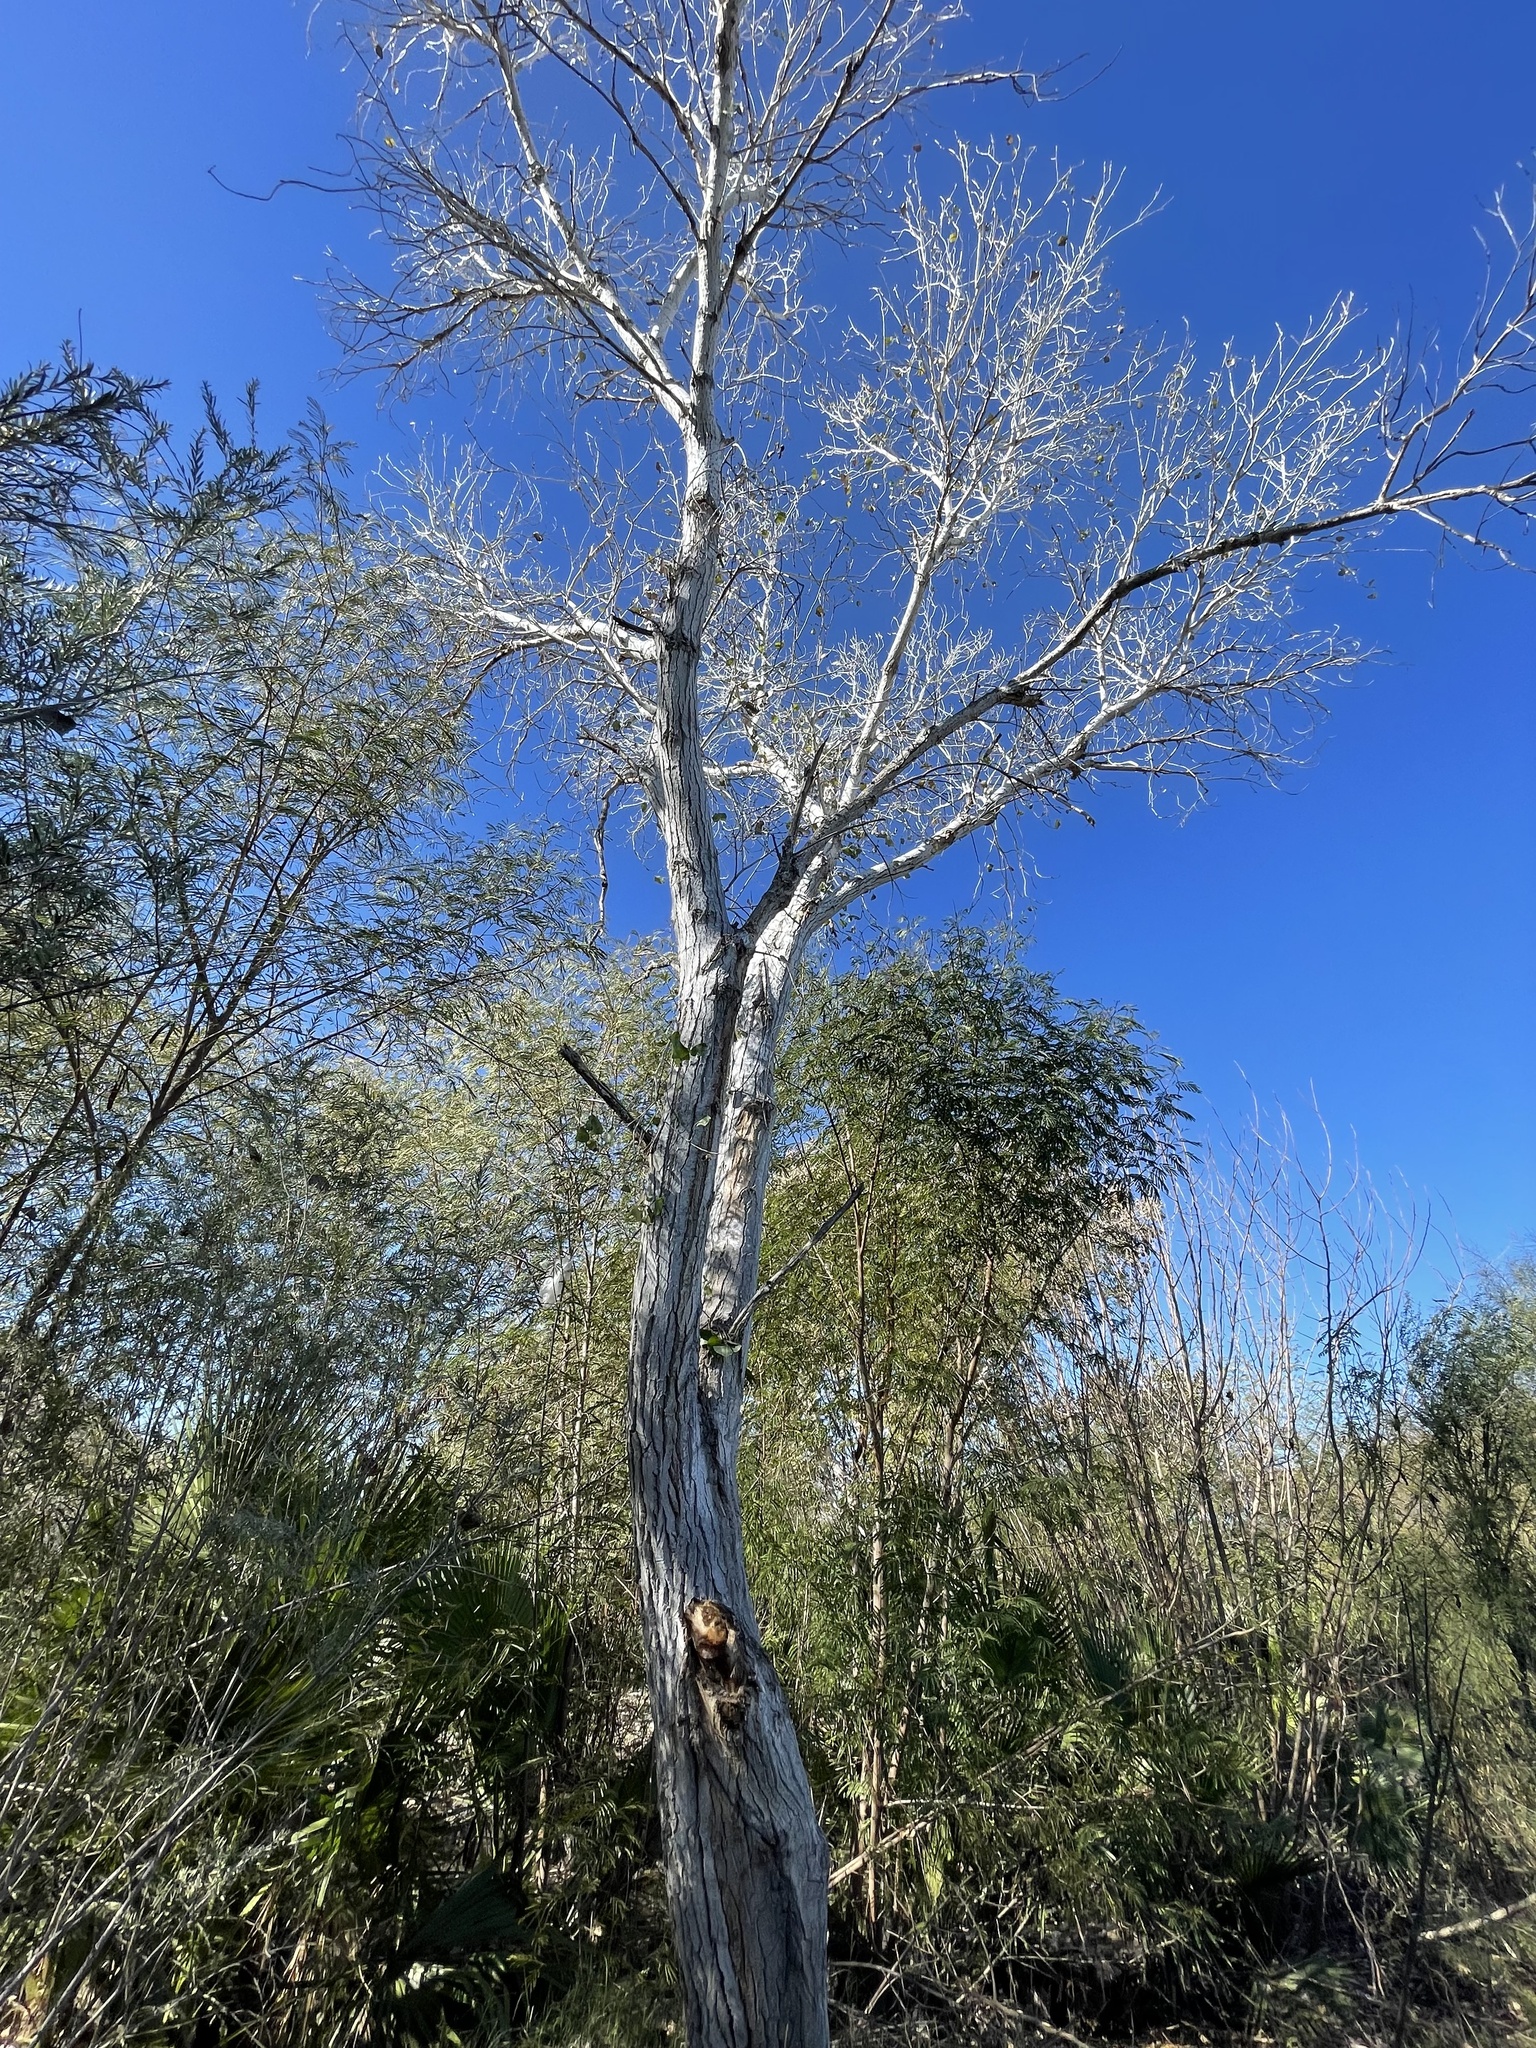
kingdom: Plantae
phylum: Tracheophyta
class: Magnoliopsida
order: Malpighiales
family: Salicaceae
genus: Populus
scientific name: Populus fremontii
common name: Fremont's cottonwood
